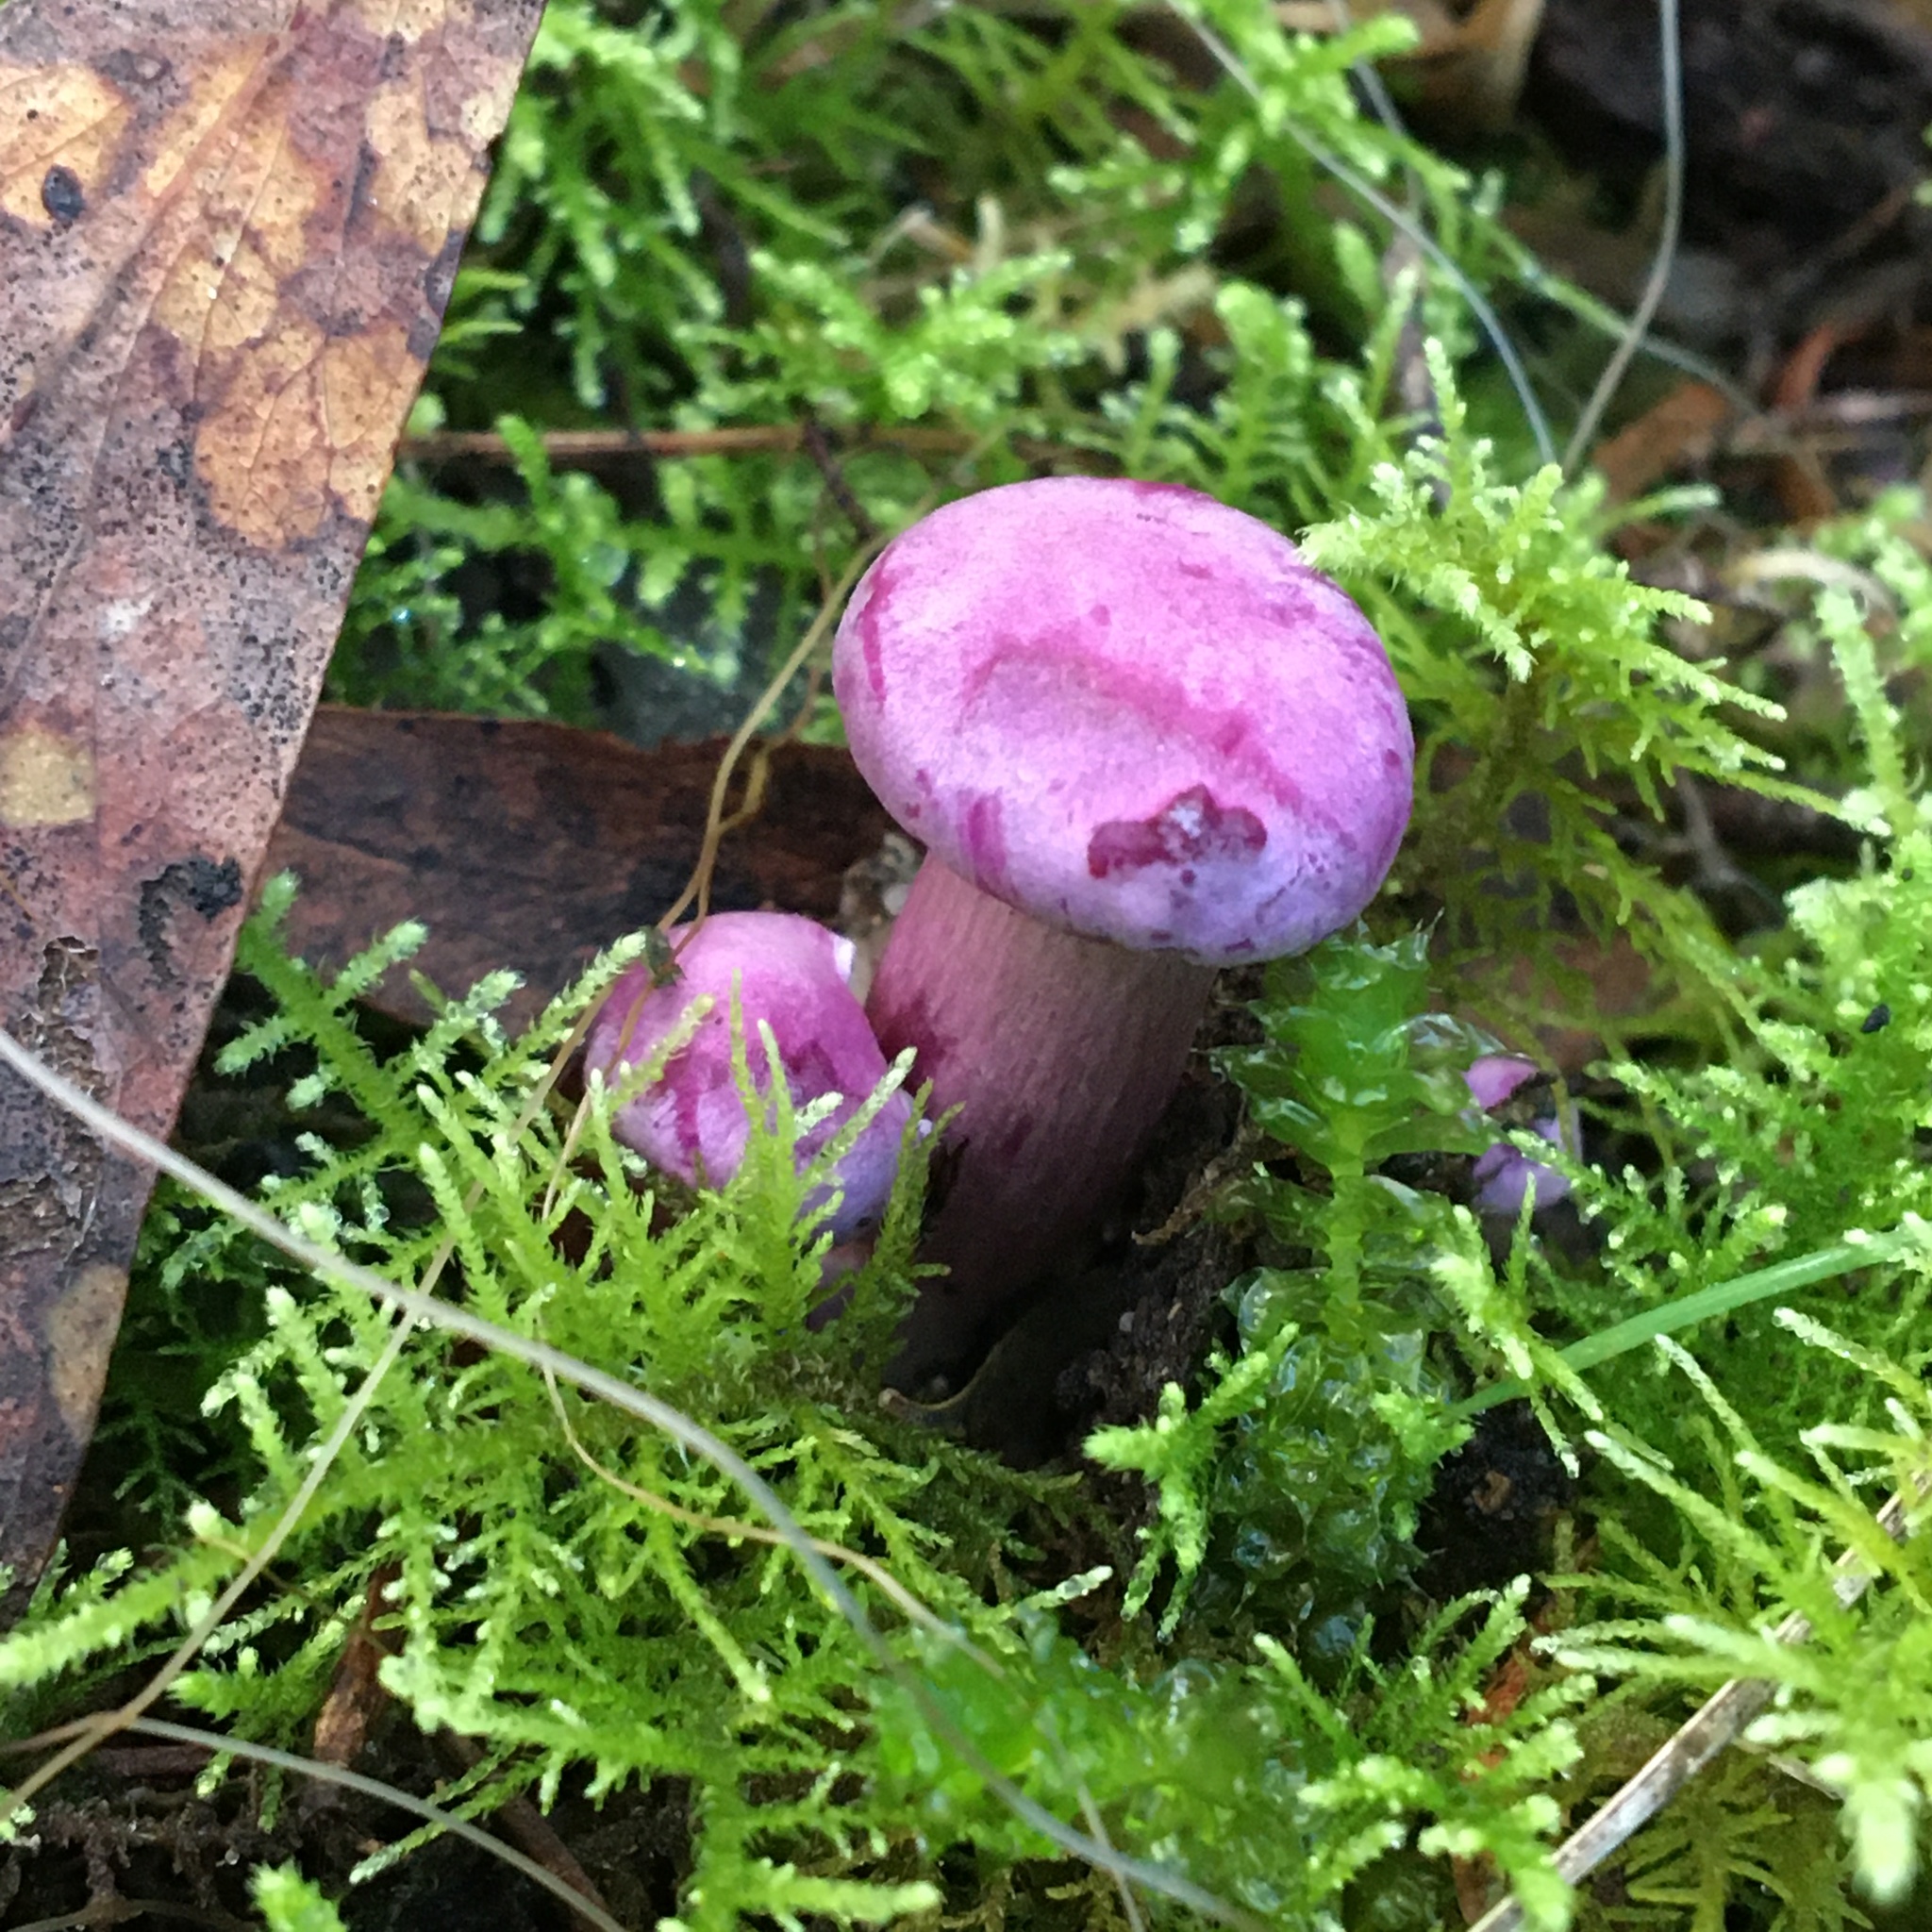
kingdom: Fungi
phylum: Basidiomycota
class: Agaricomycetes
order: Agaricales
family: Hygrophoraceae
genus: Cuphophyllus
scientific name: Cuphophyllus
